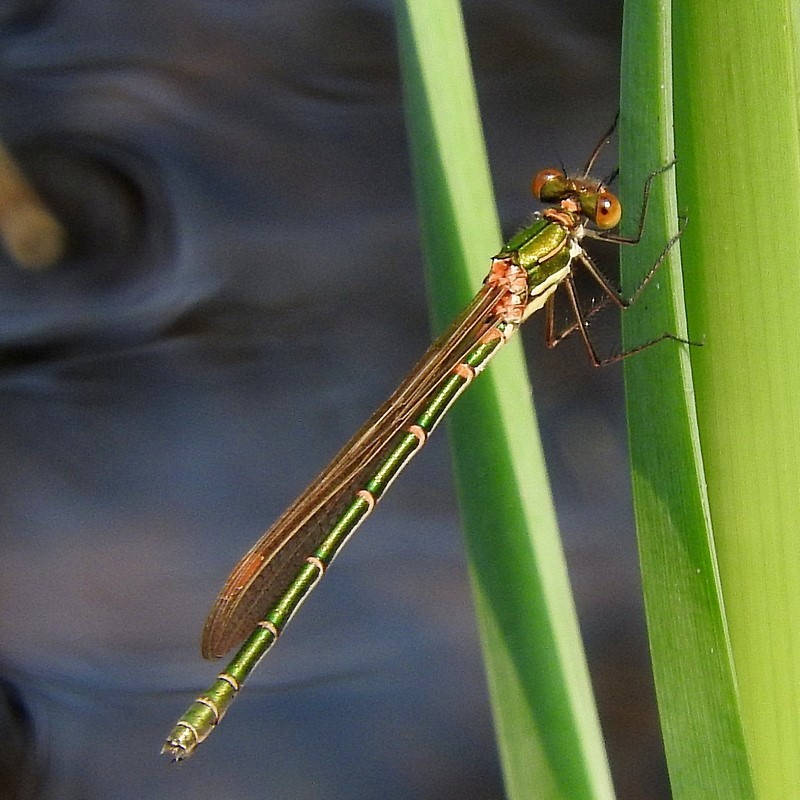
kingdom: Animalia
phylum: Arthropoda
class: Insecta
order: Odonata
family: Lestidae
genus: Austrolestes
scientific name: Austrolestes cingulatus
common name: Metallic ringtail
